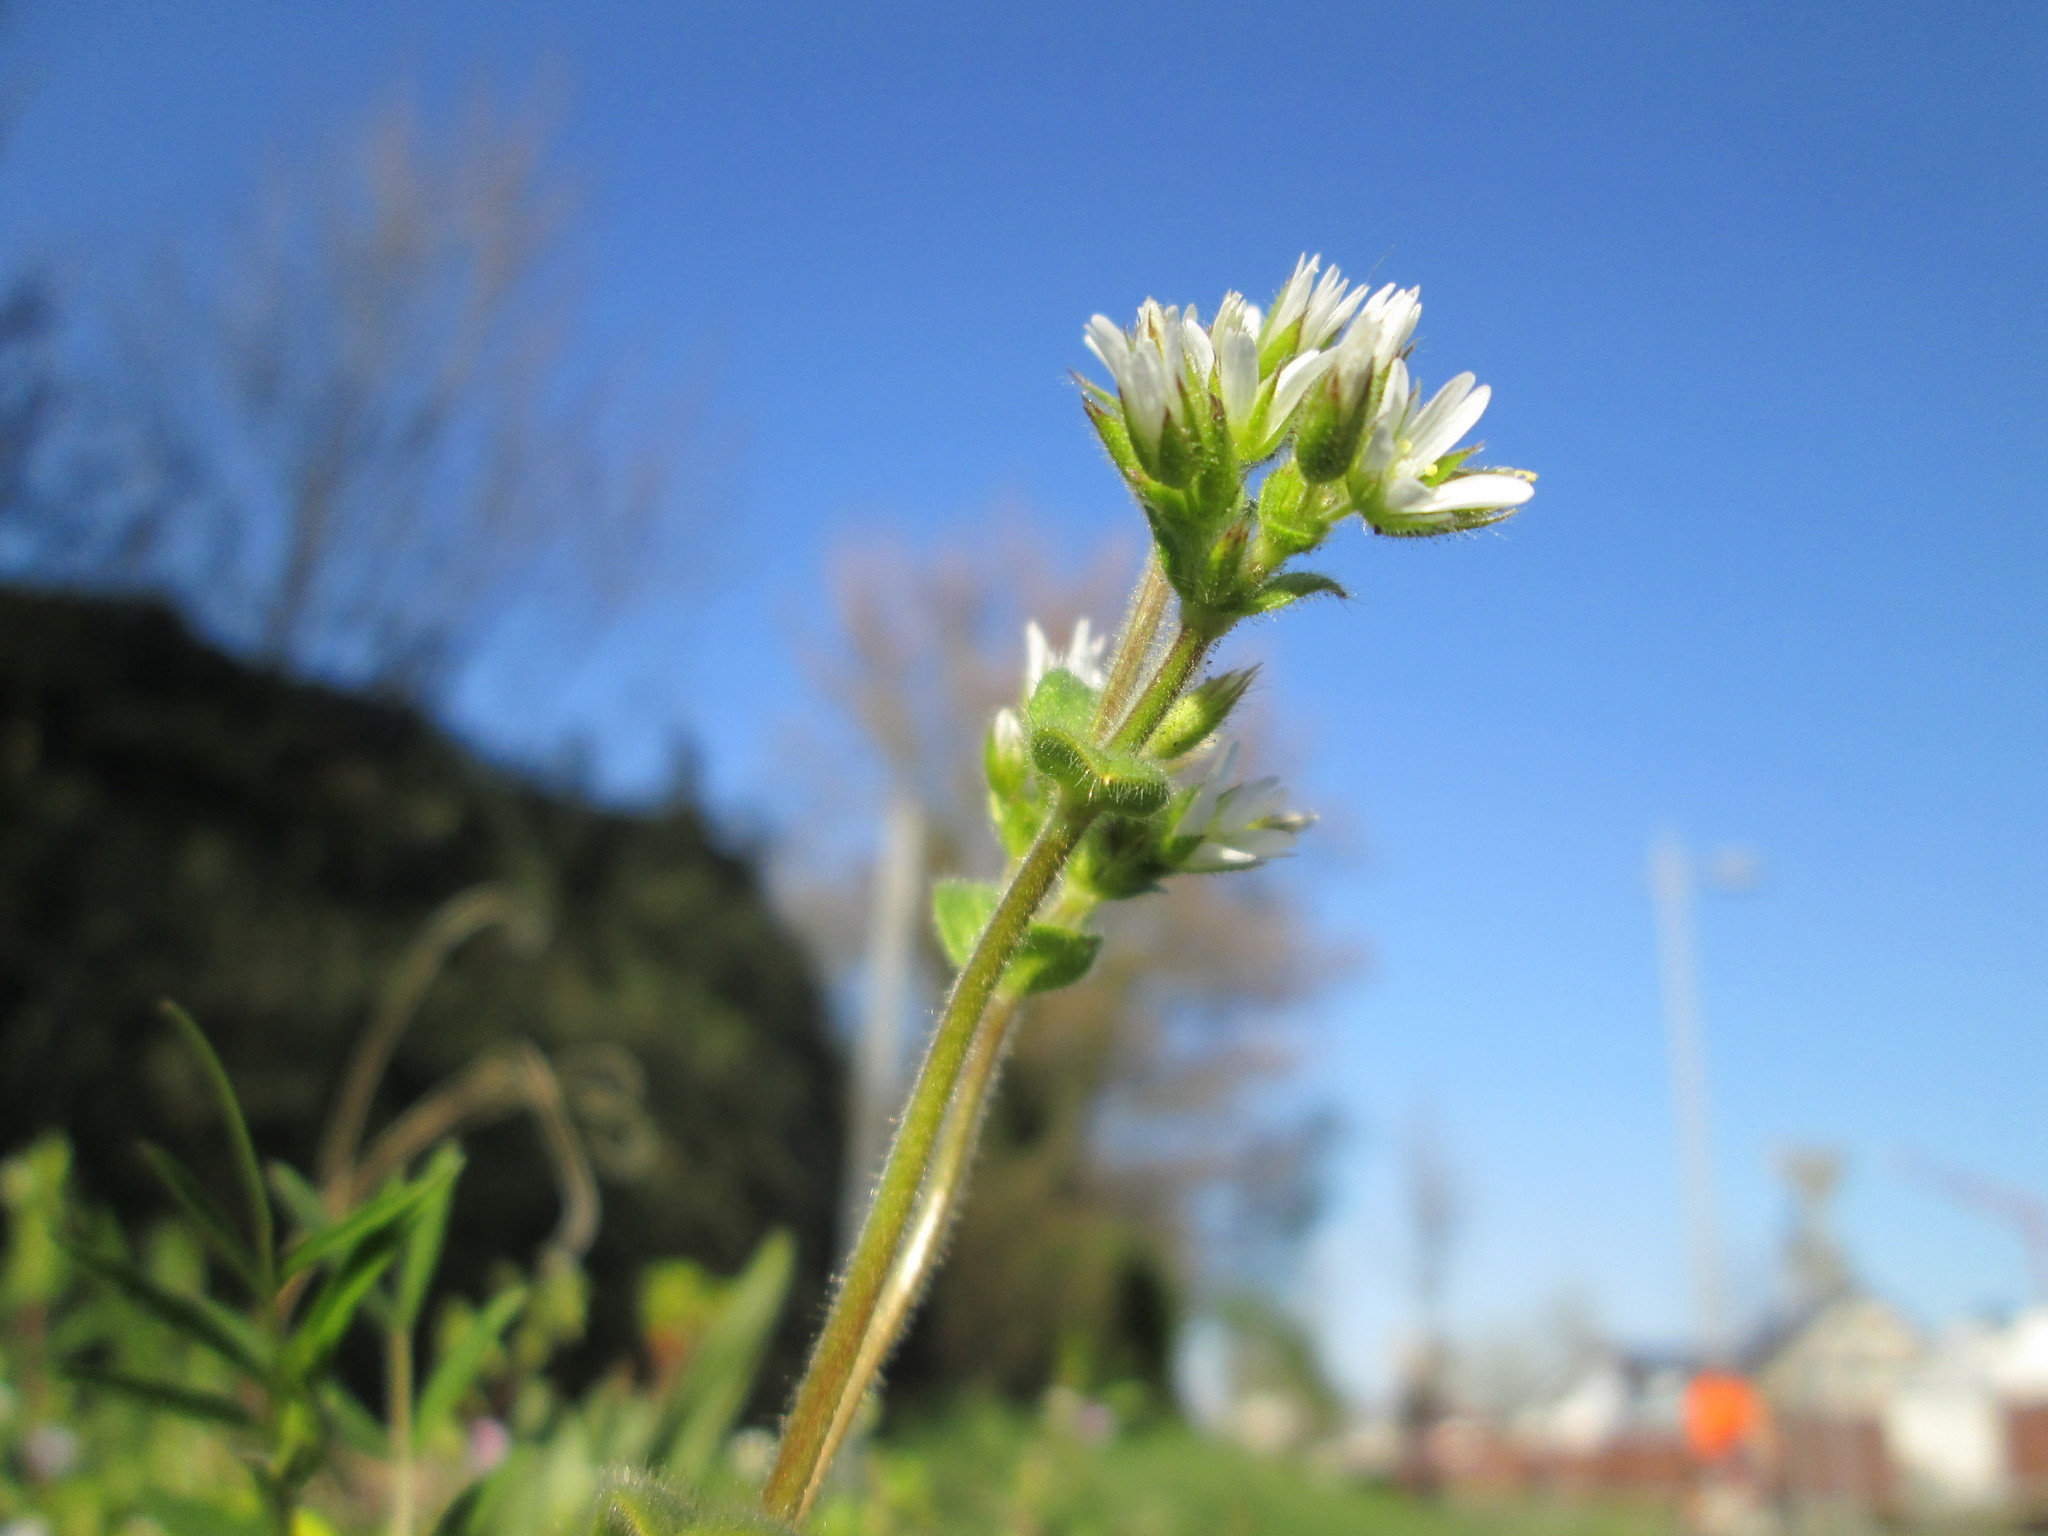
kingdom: Plantae
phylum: Tracheophyta
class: Magnoliopsida
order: Caryophyllales
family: Caryophyllaceae
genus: Cerastium
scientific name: Cerastium glomeratum
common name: Sticky chickweed
